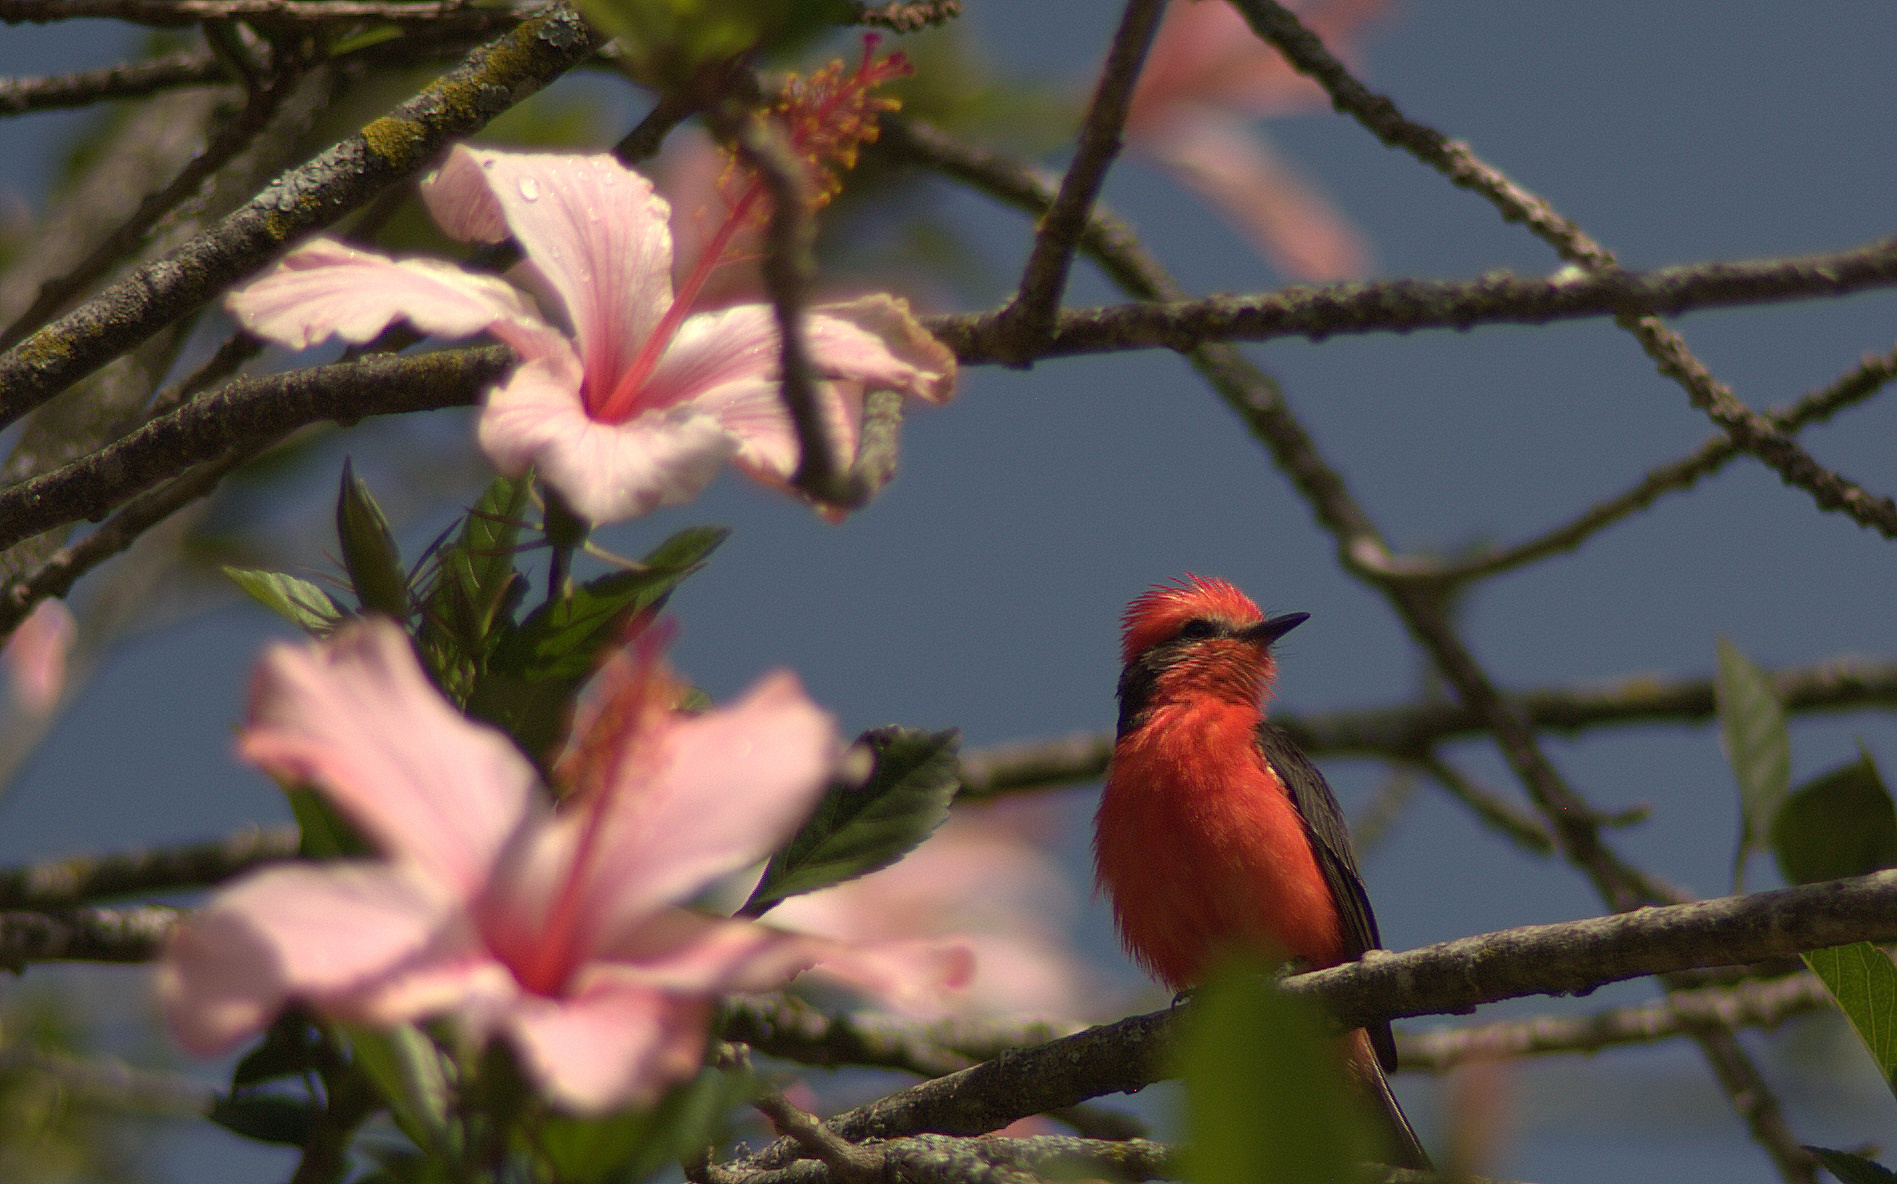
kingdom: Animalia
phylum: Chordata
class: Aves
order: Passeriformes
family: Tyrannidae
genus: Pyrocephalus
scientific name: Pyrocephalus rubinus
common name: Vermilion flycatcher
